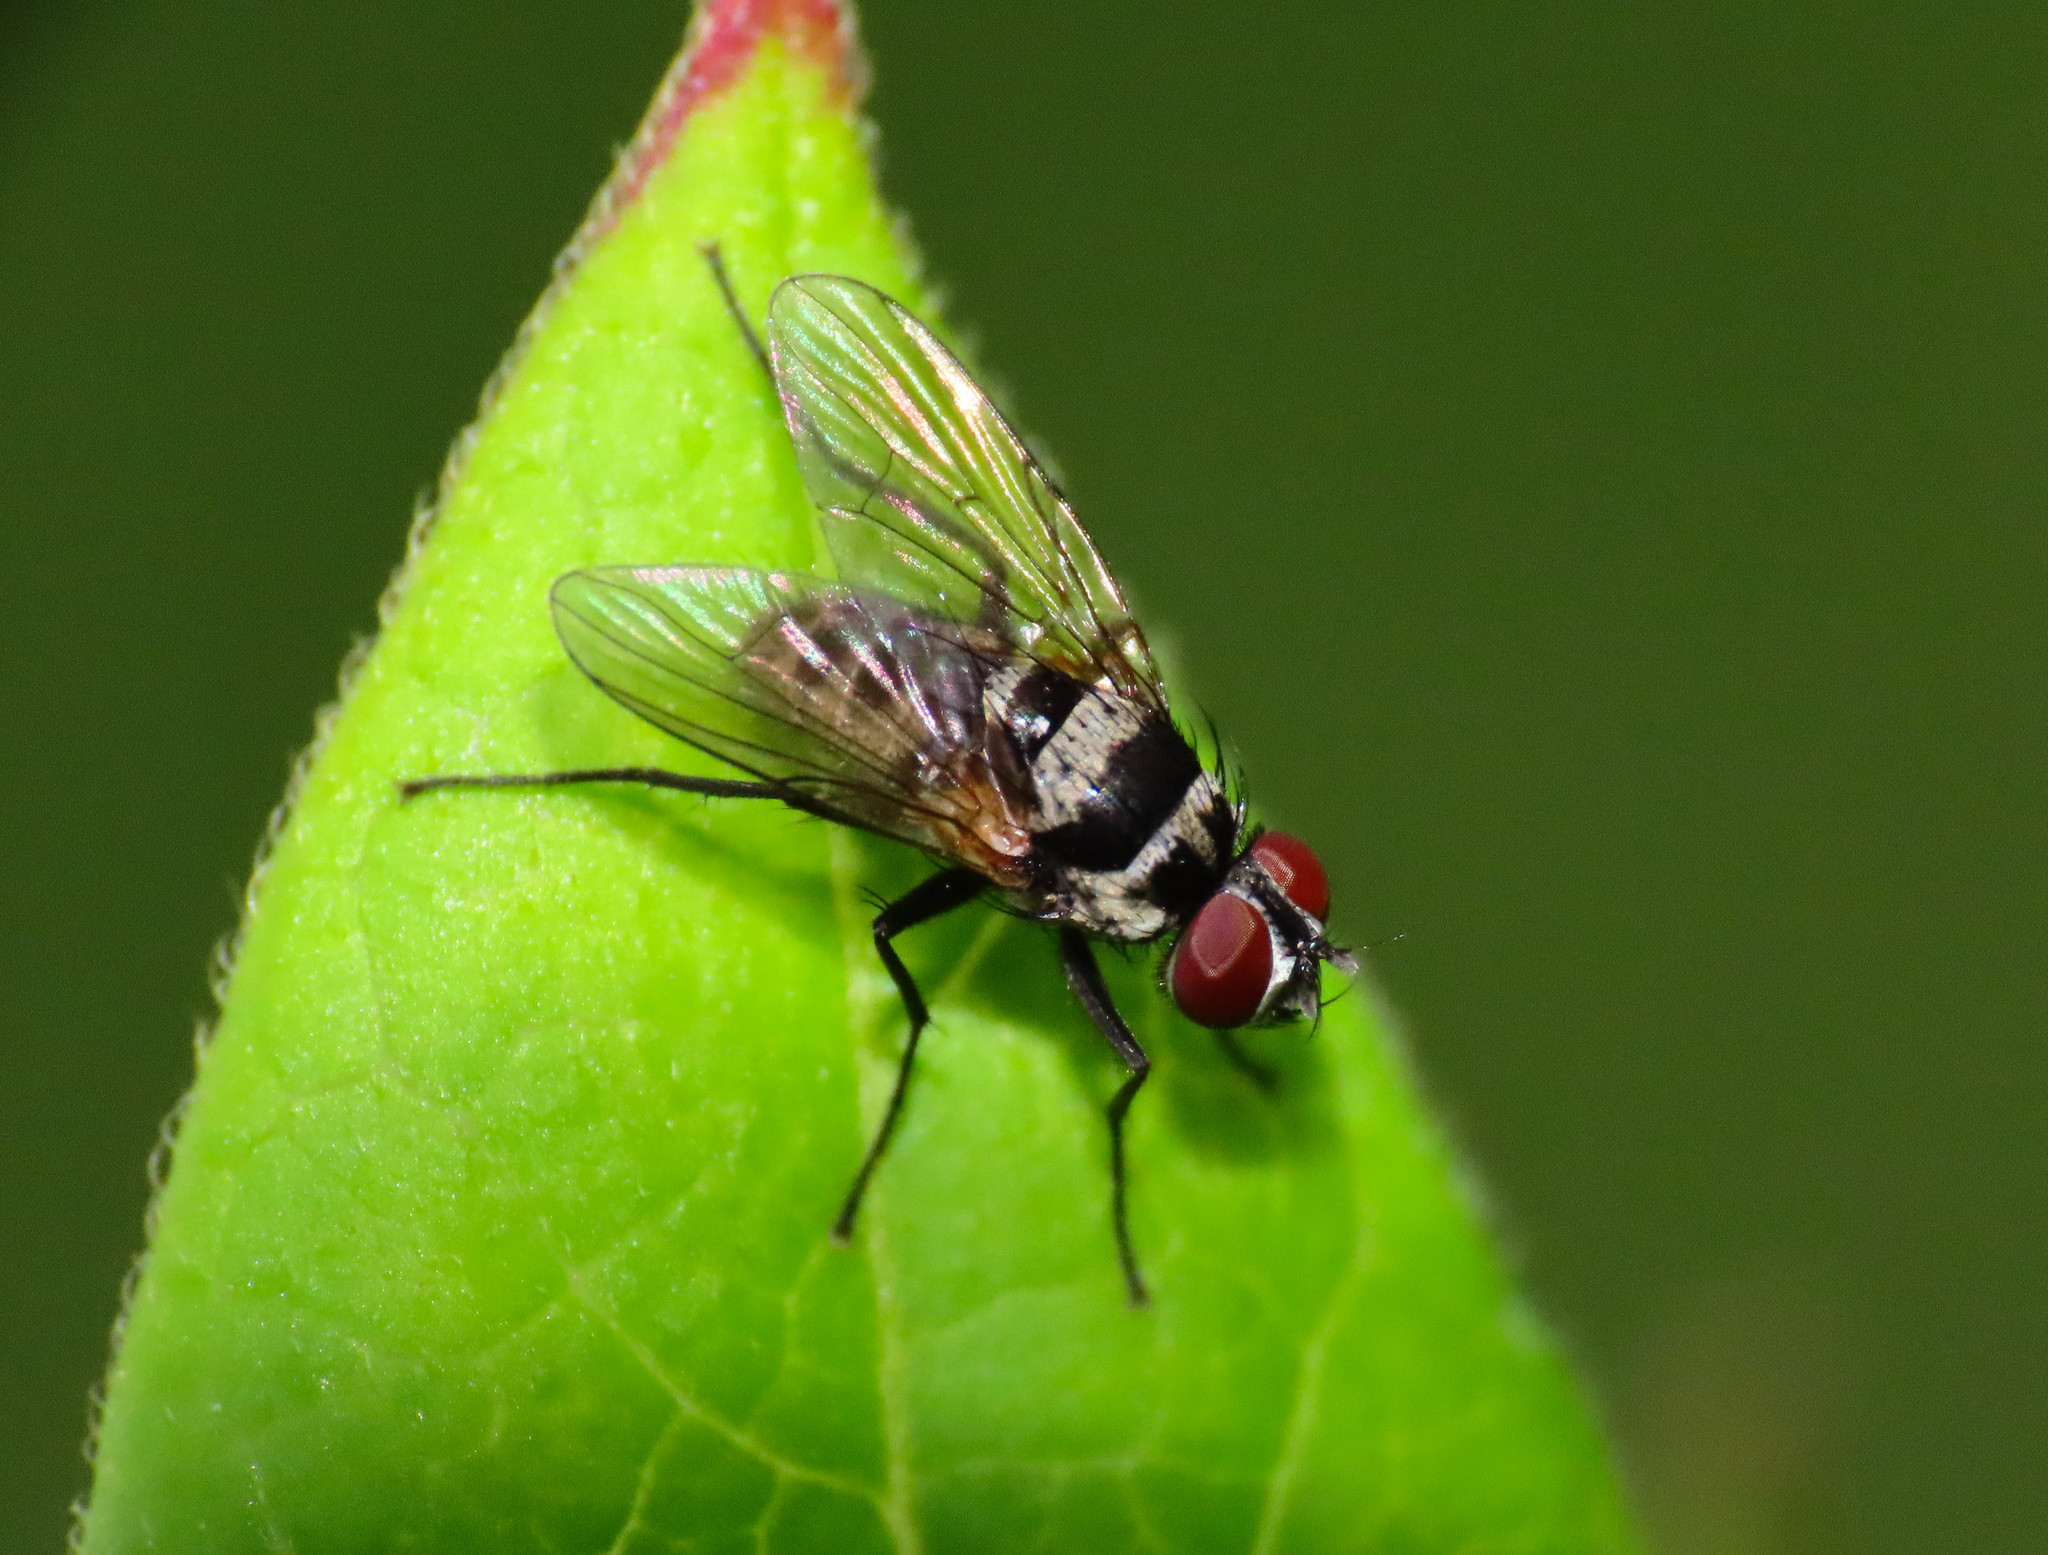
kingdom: Animalia
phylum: Arthropoda
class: Insecta
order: Diptera
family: Muscidae
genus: Limnophora
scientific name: Limnophora obsignata
